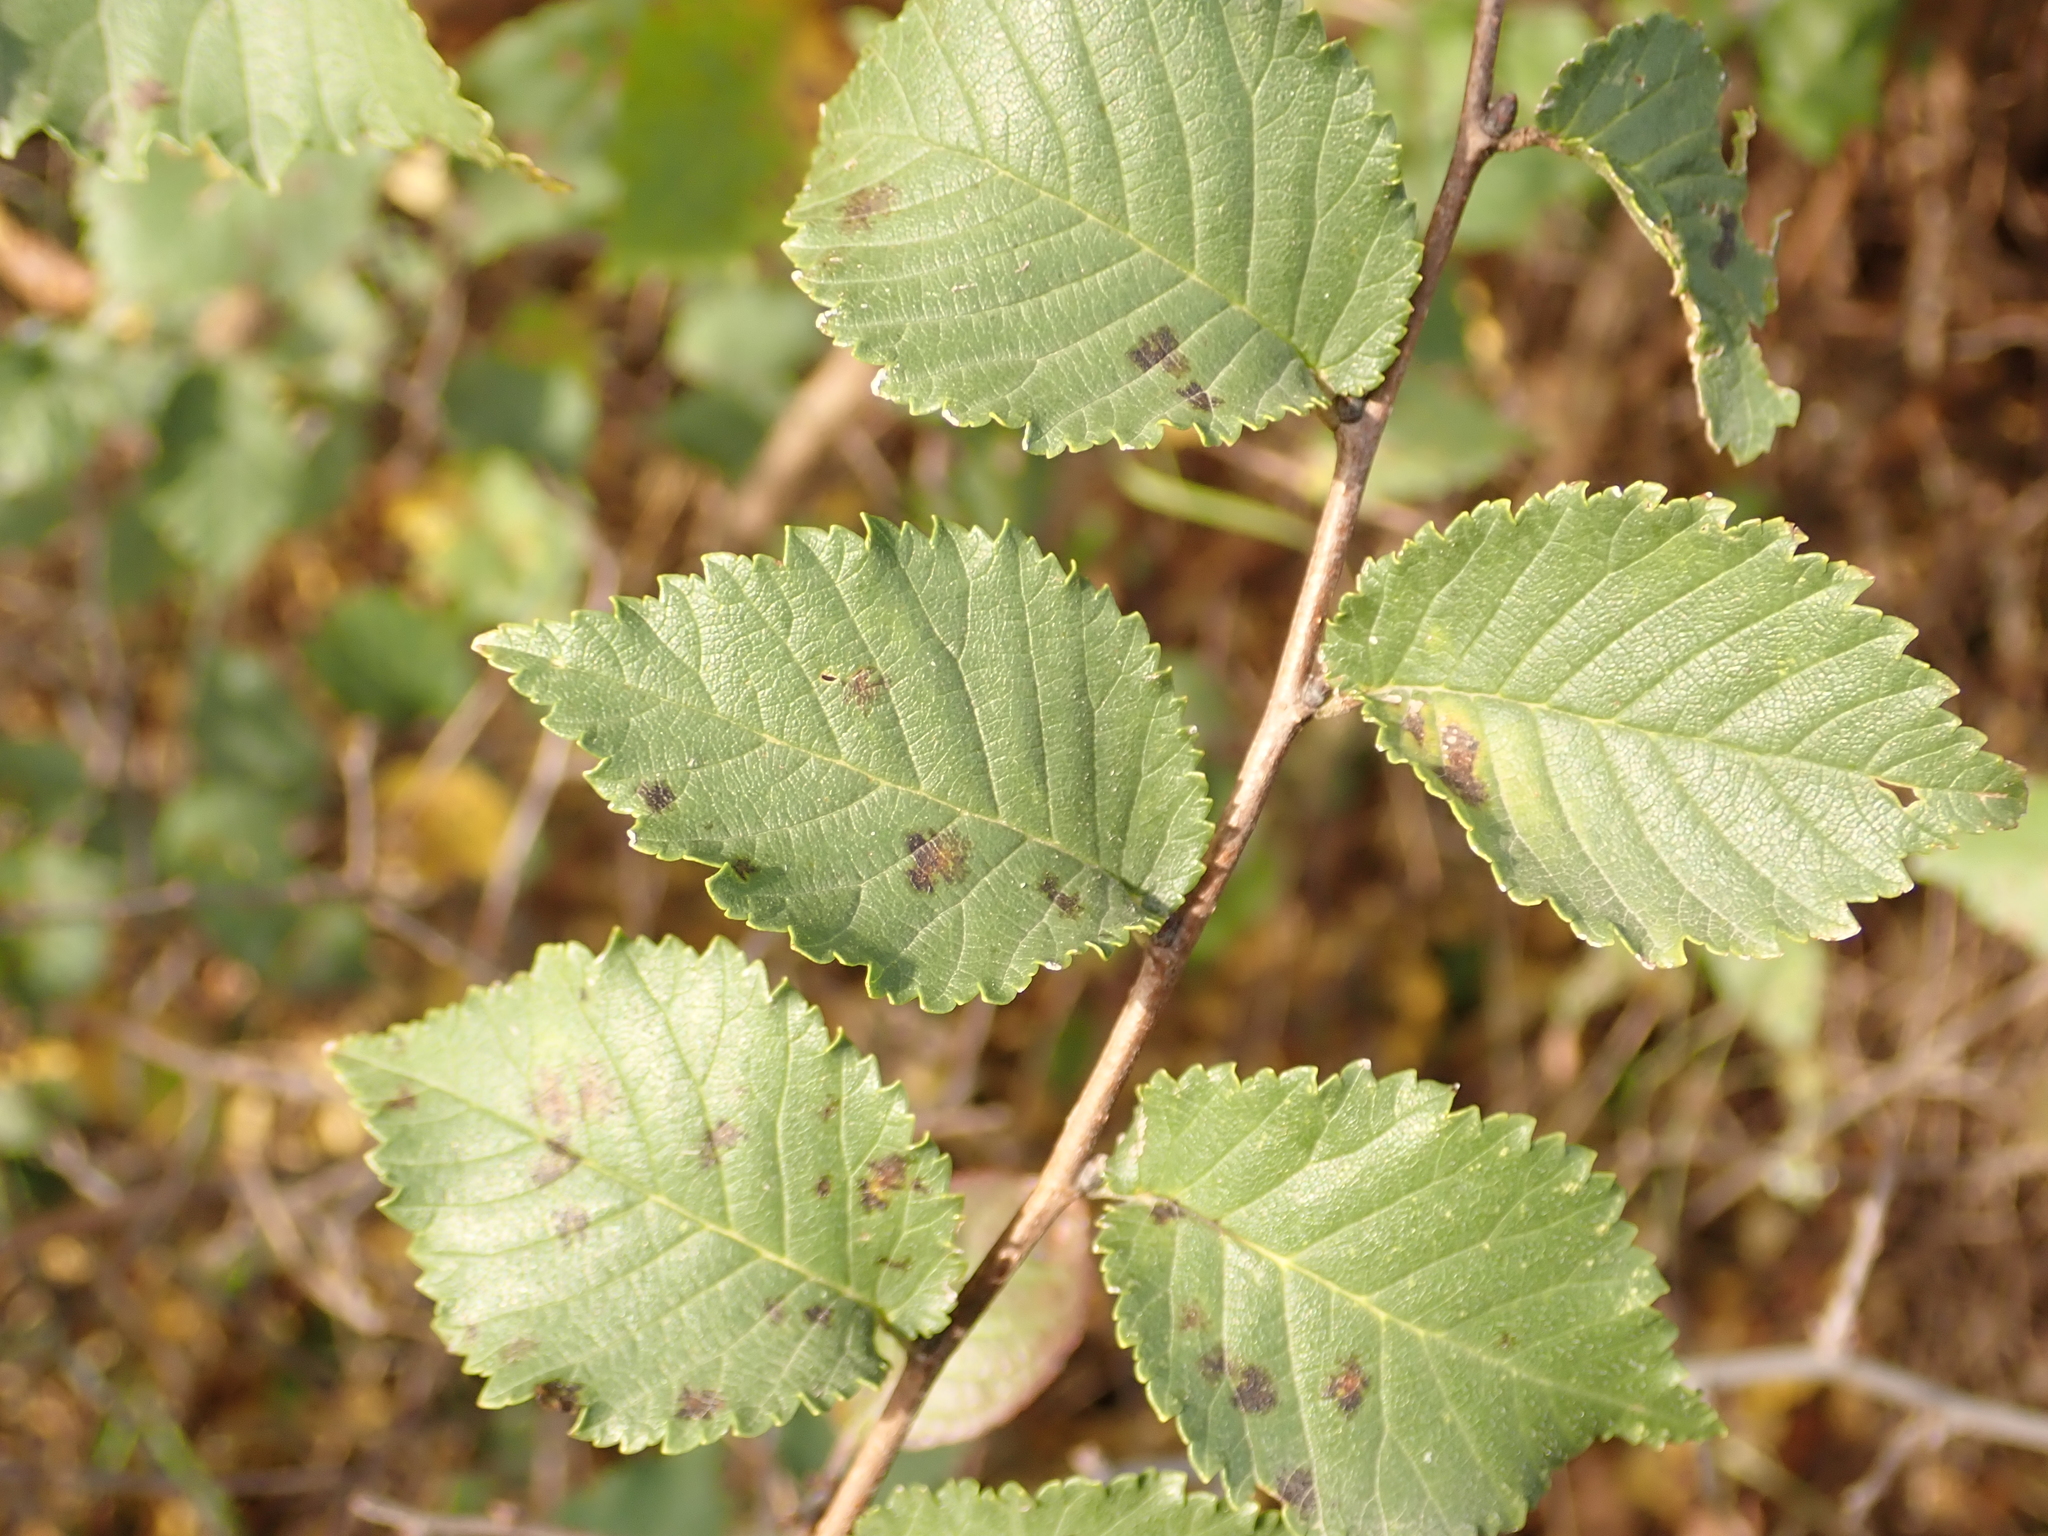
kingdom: Plantae
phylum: Tracheophyta
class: Magnoliopsida
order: Rosales
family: Ulmaceae
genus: Ulmus
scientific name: Ulmus minor
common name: Small-leaved elm
